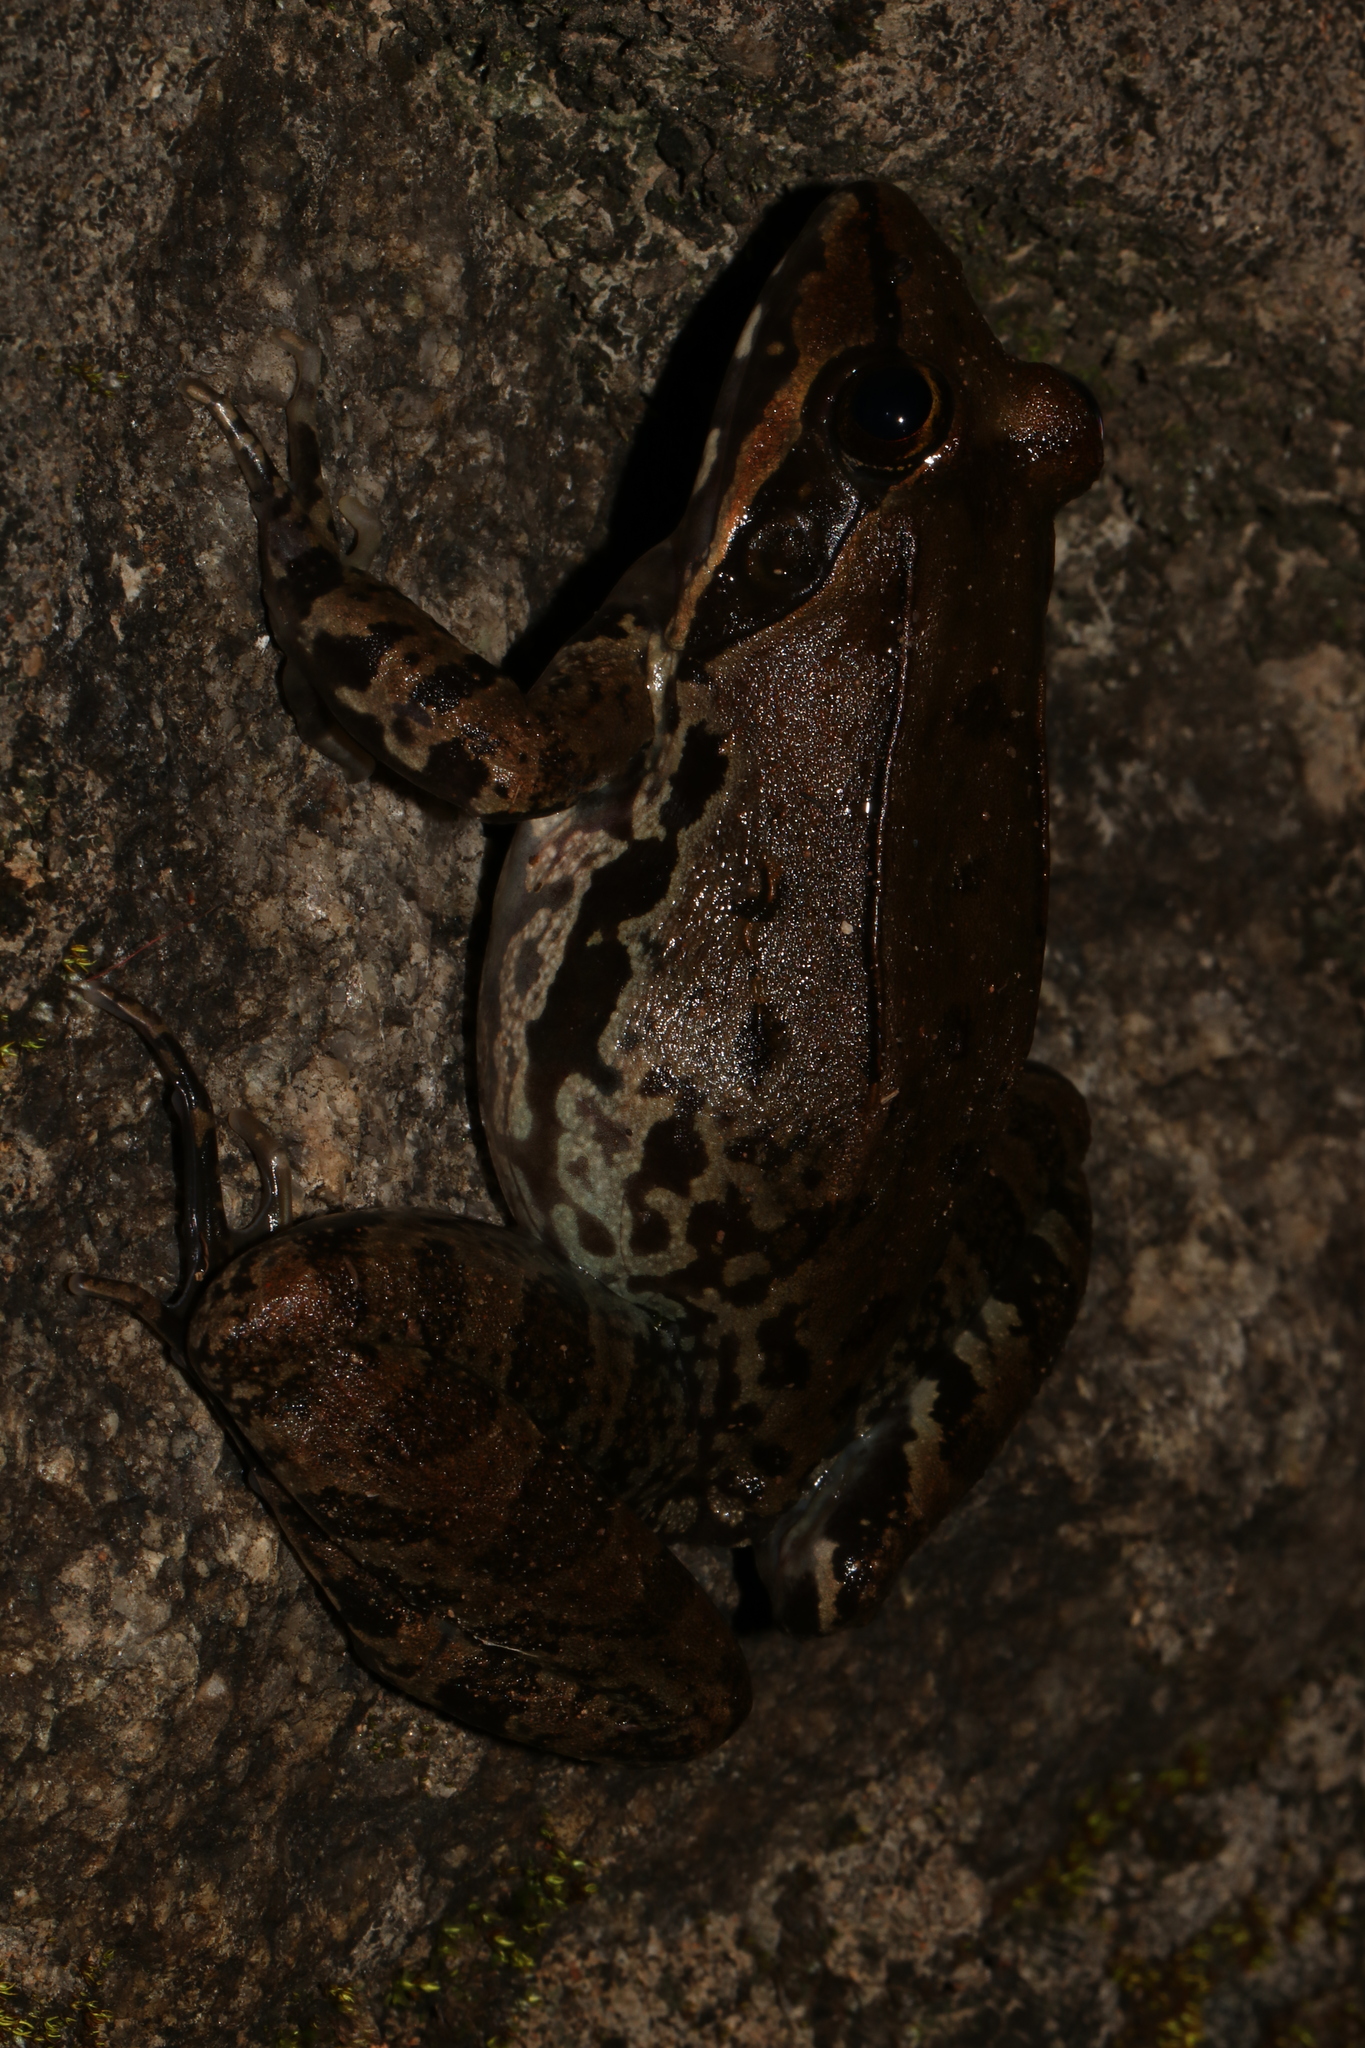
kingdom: Animalia
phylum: Chordata
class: Amphibia
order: Anura
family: Pyxicephalidae
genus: Amietia
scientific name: Amietia tenuoplicata
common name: River frog
